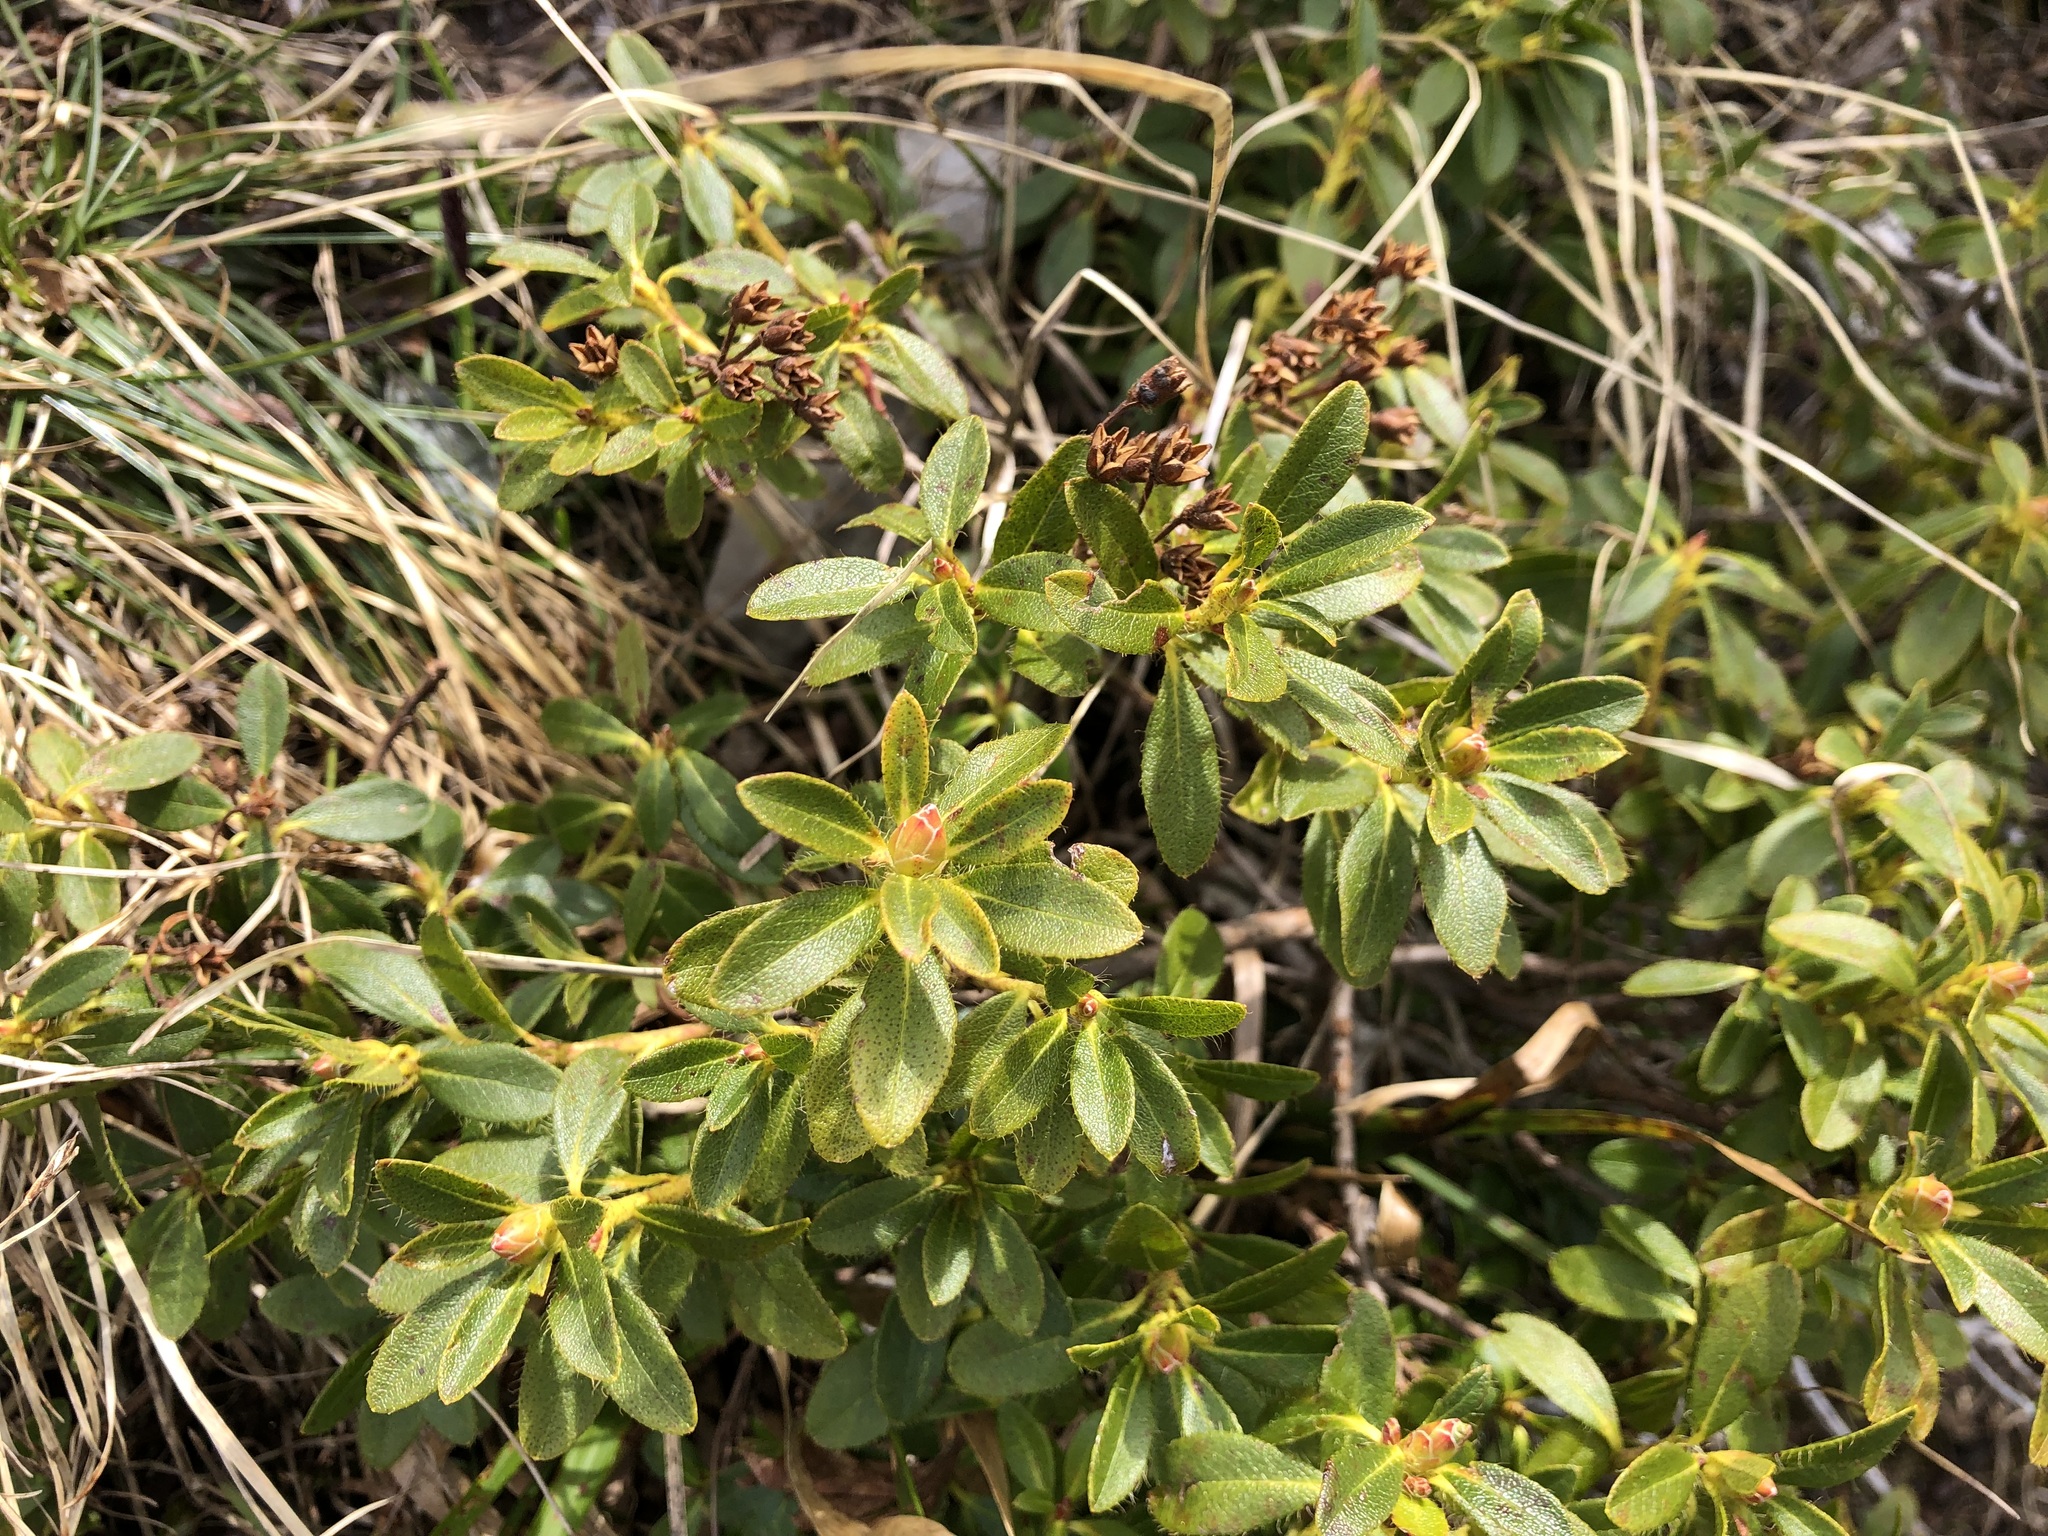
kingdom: Plantae
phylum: Tracheophyta
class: Magnoliopsida
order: Ericales
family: Ericaceae
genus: Rhododendron
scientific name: Rhododendron hirsutum
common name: Hairy alpenrose
